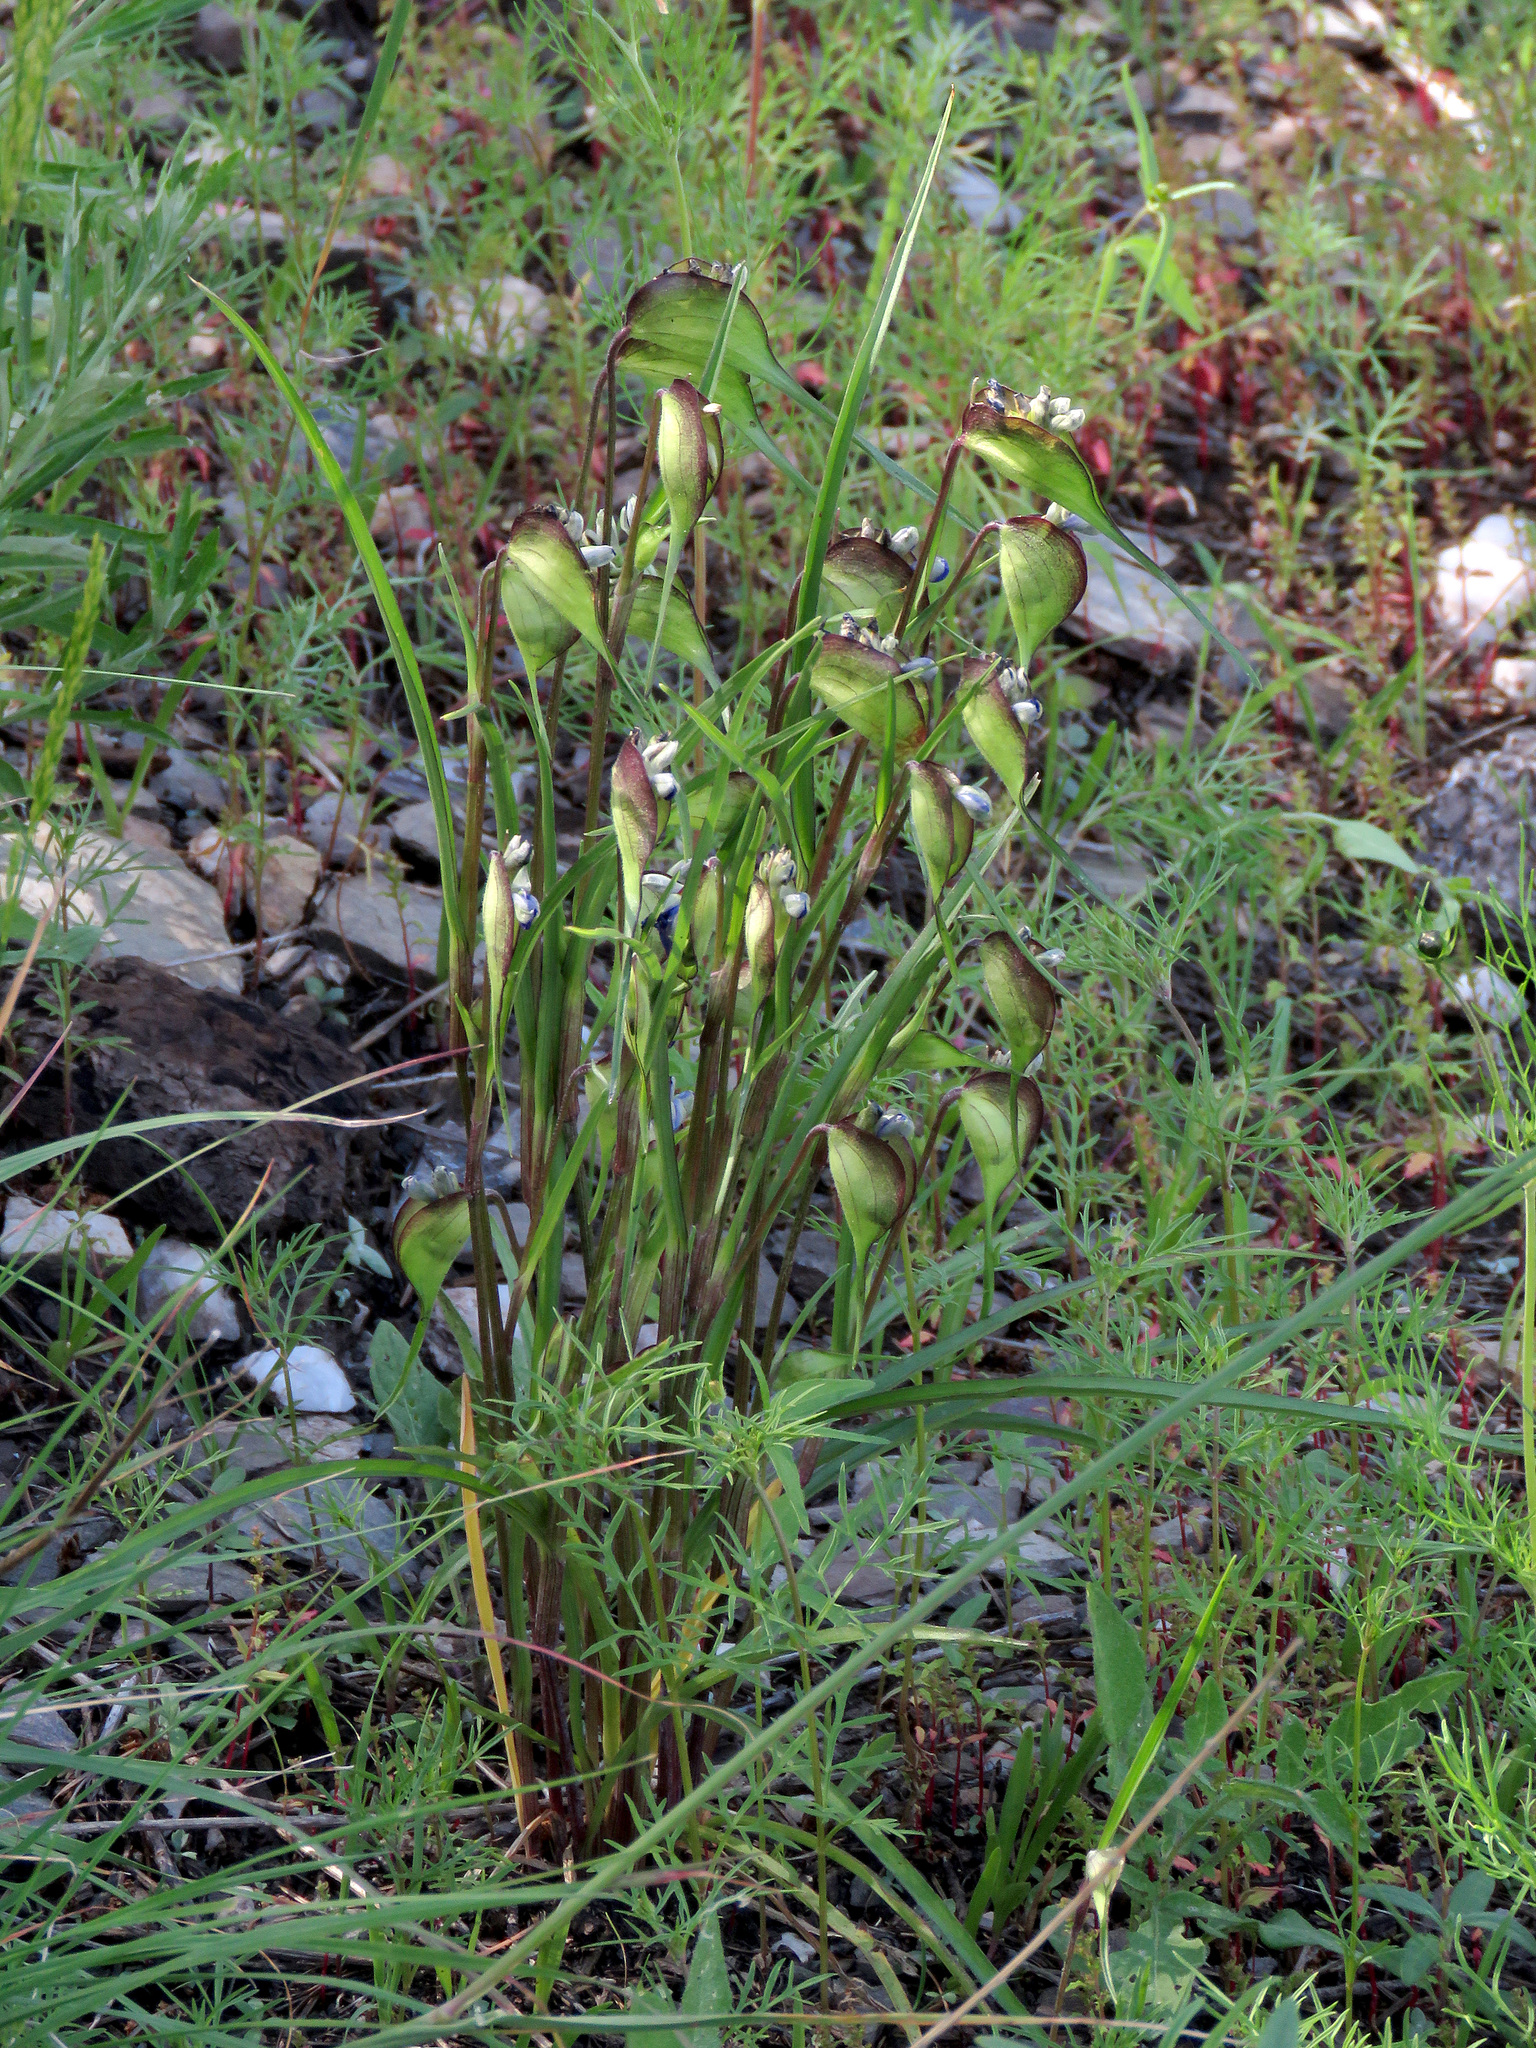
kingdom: Plantae
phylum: Tracheophyta
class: Liliopsida
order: Commelinales
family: Commelinaceae
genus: Commelina
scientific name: Commelina dianthifolia
